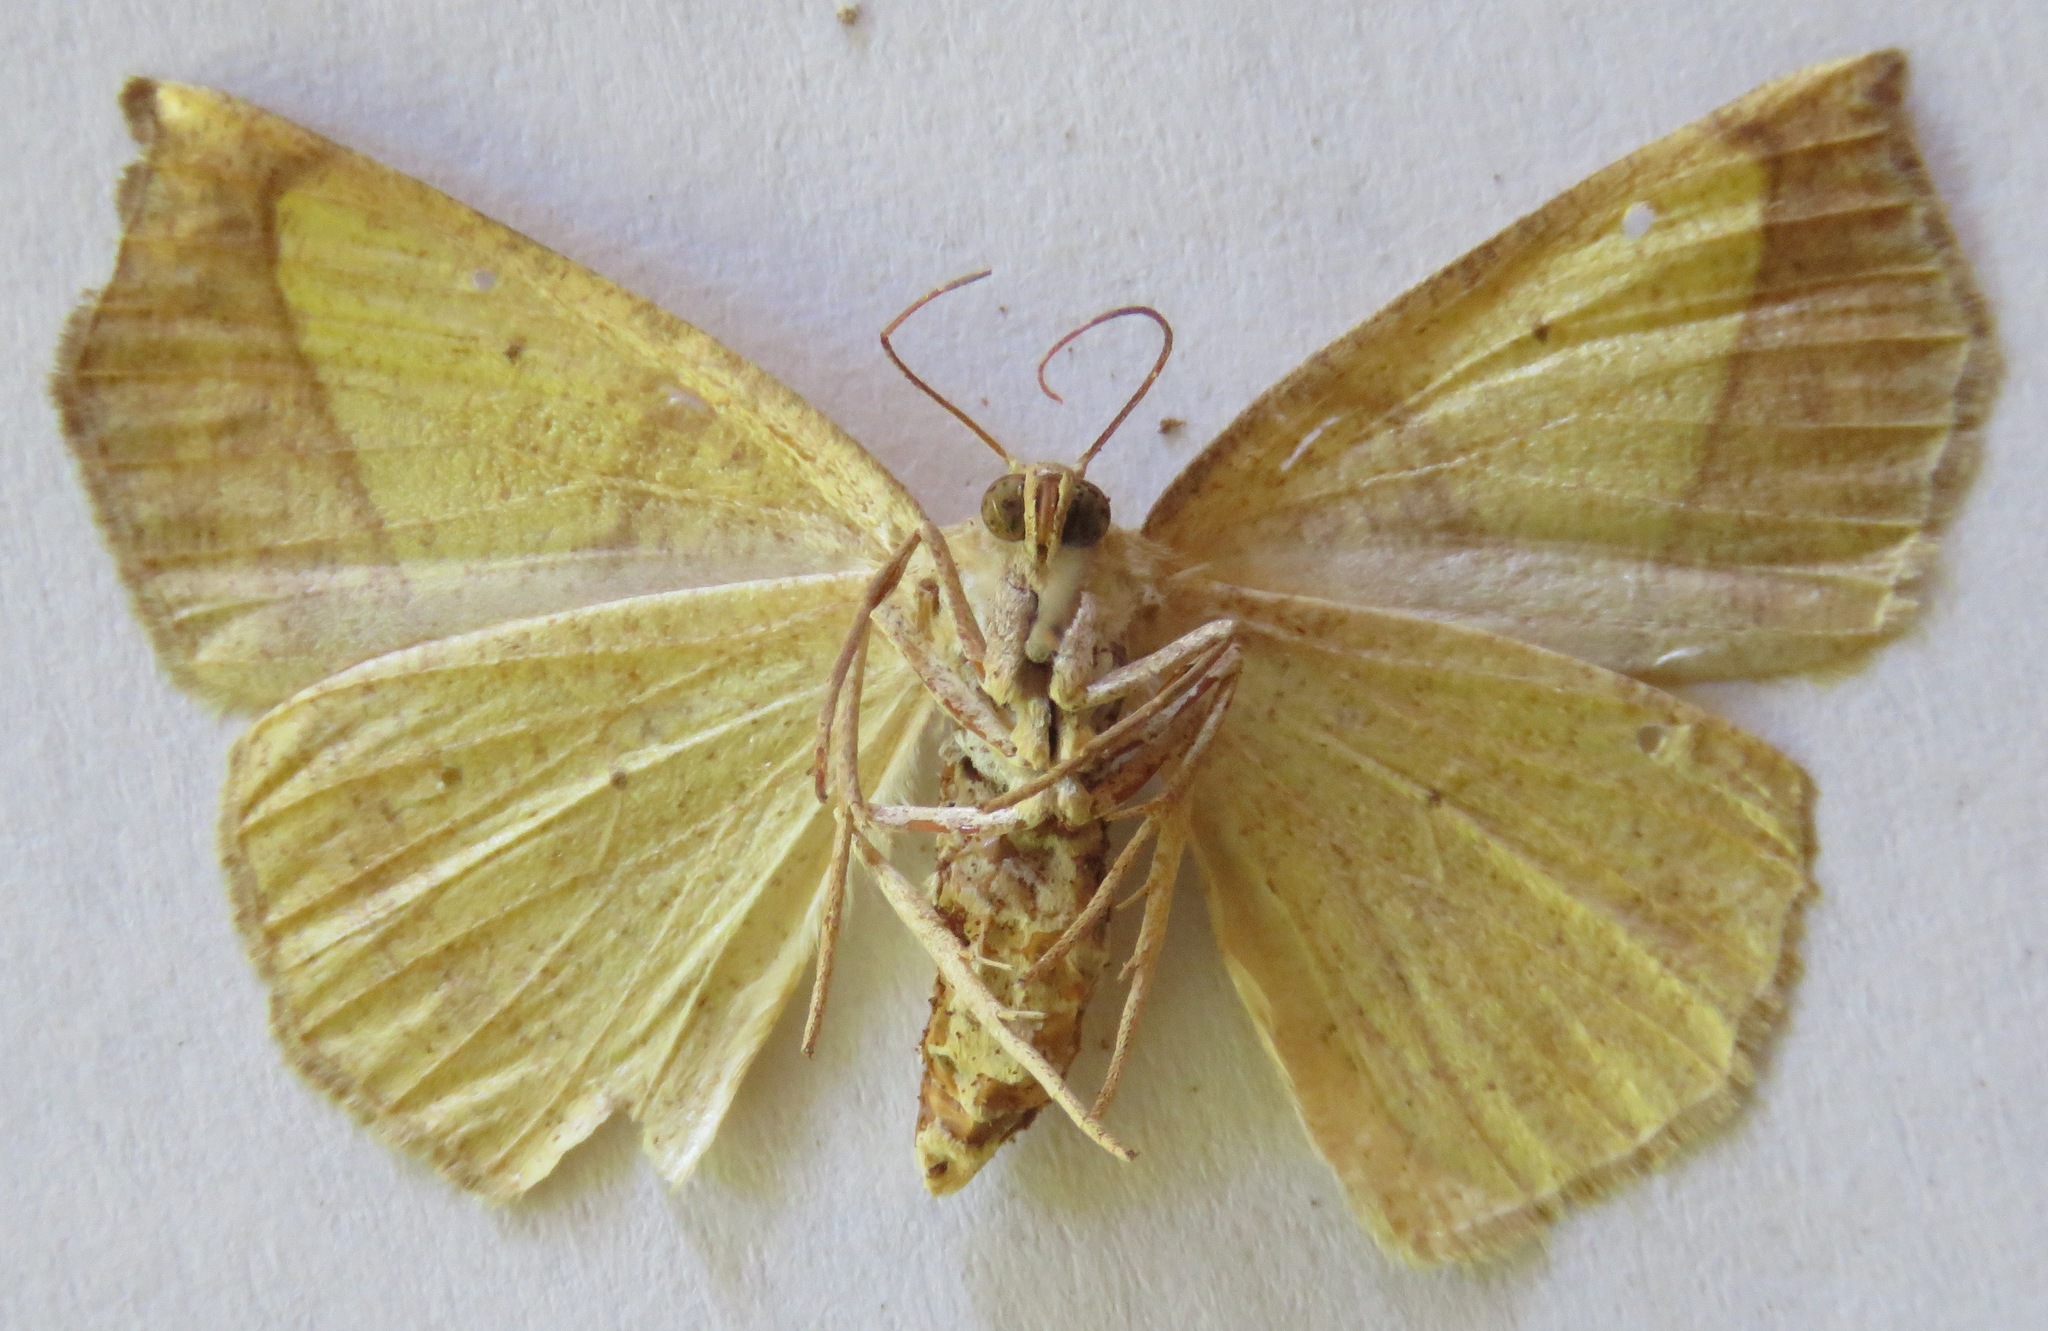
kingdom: Animalia
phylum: Arthropoda
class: Insecta
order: Lepidoptera
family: Geometridae
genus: Eusarca
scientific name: Eusarca fundaria
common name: Dark-edged eusarca moth
